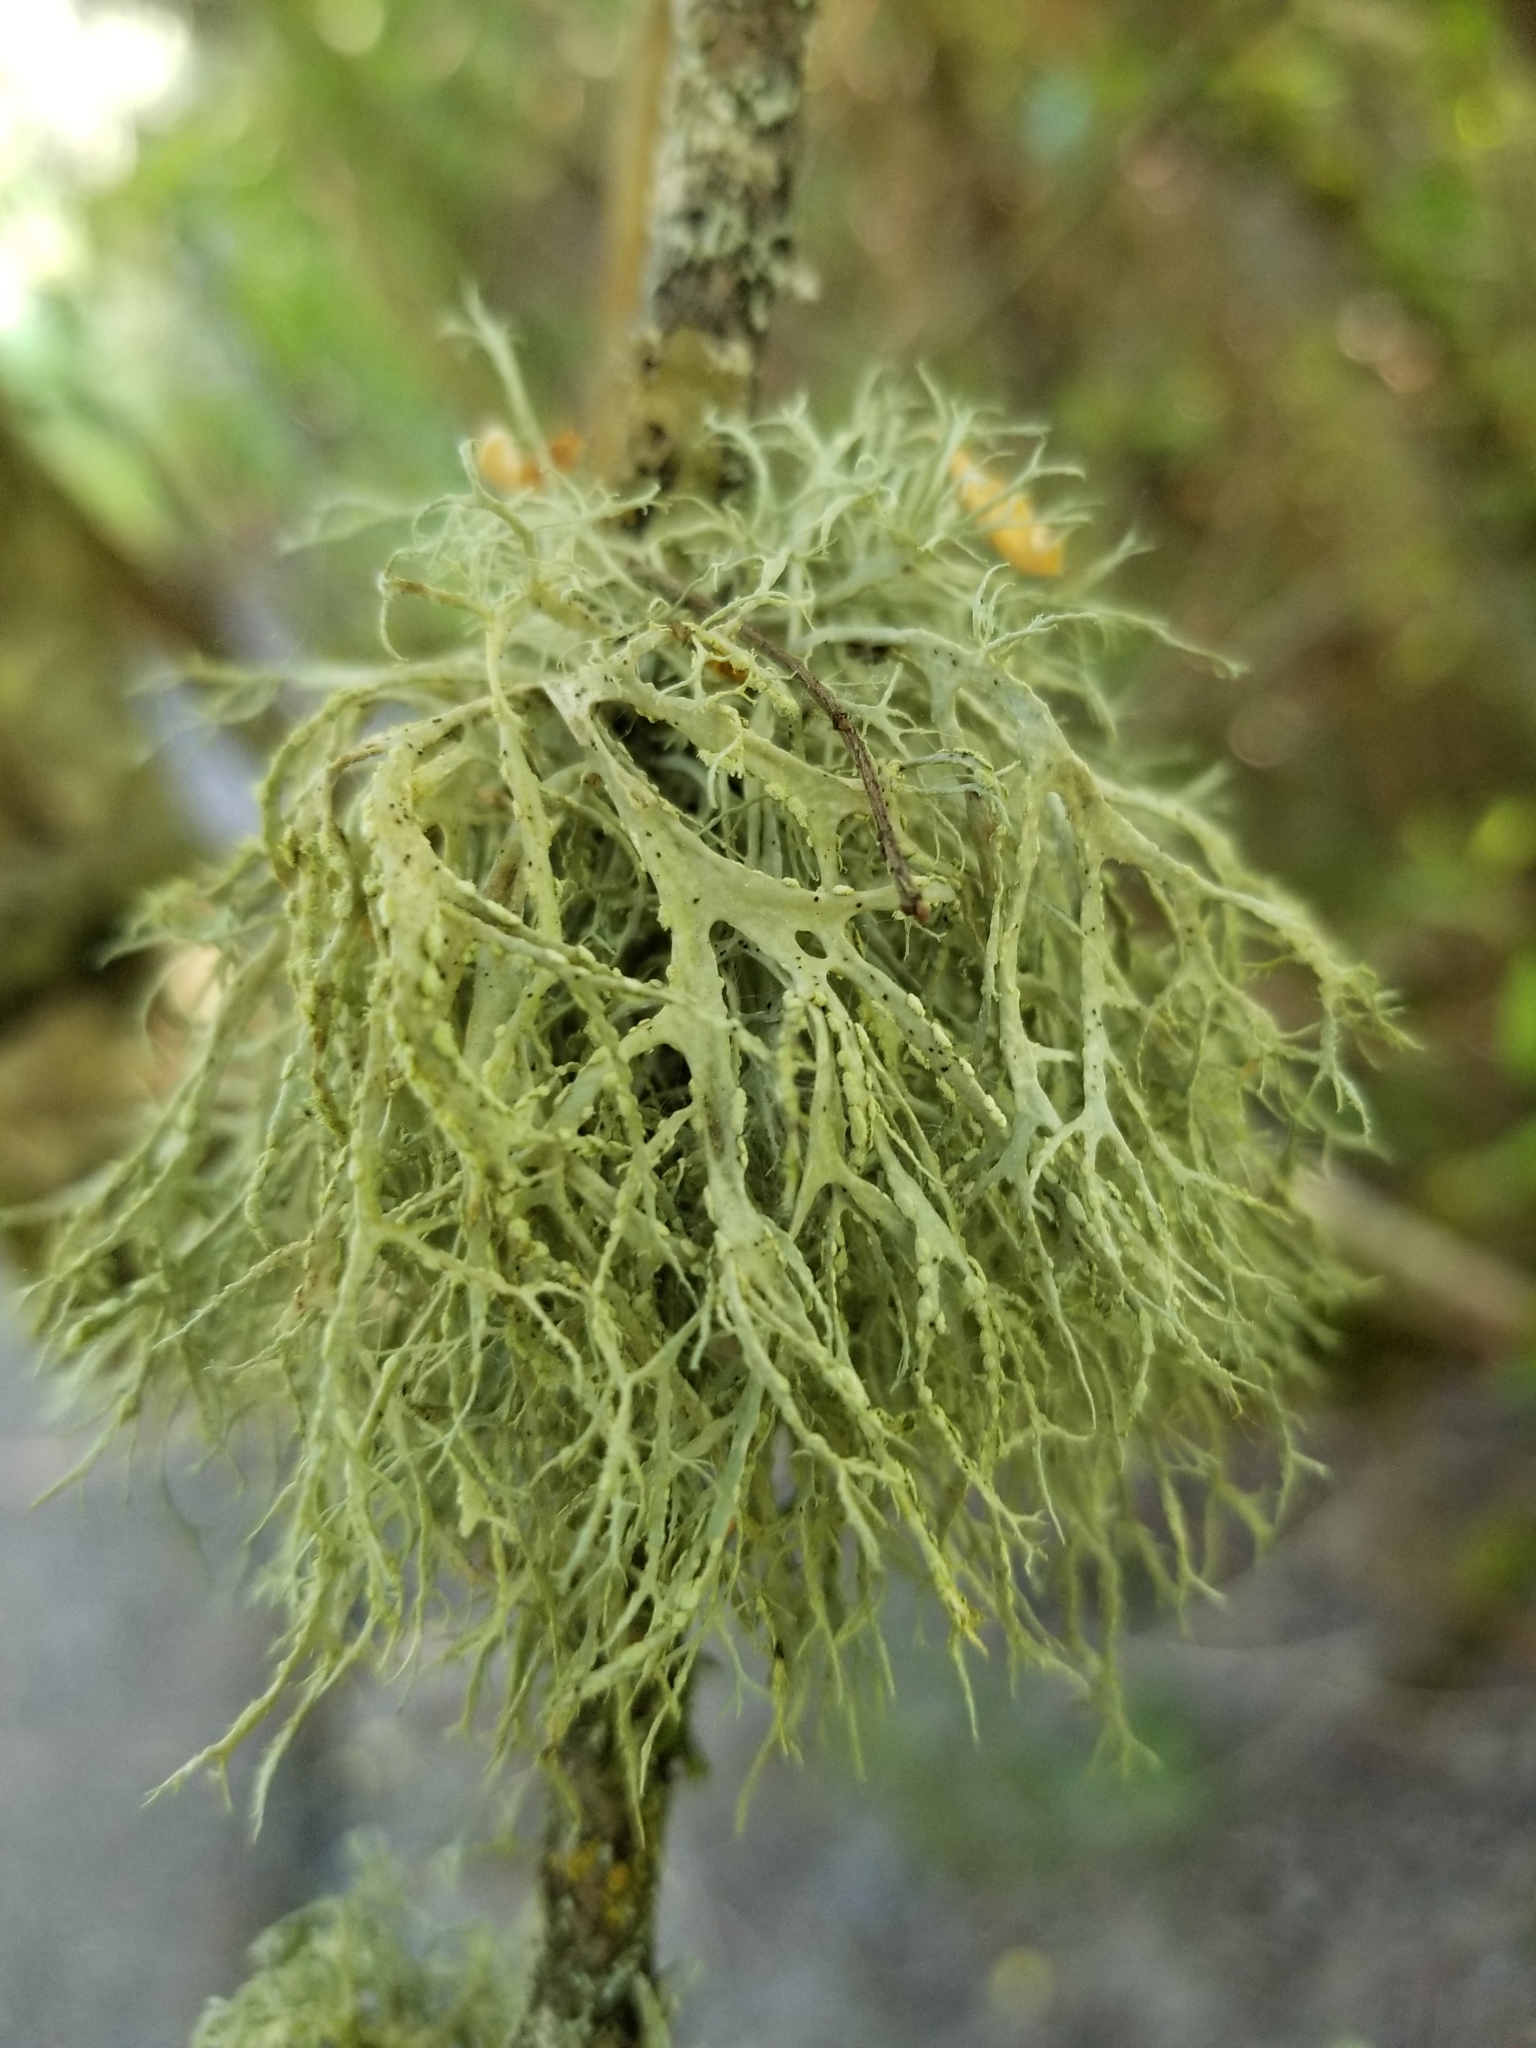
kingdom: Fungi
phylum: Ascomycota
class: Lecanoromycetes
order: Lecanorales
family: Parmeliaceae
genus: Evernia
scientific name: Evernia prunastri
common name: Oak moss
